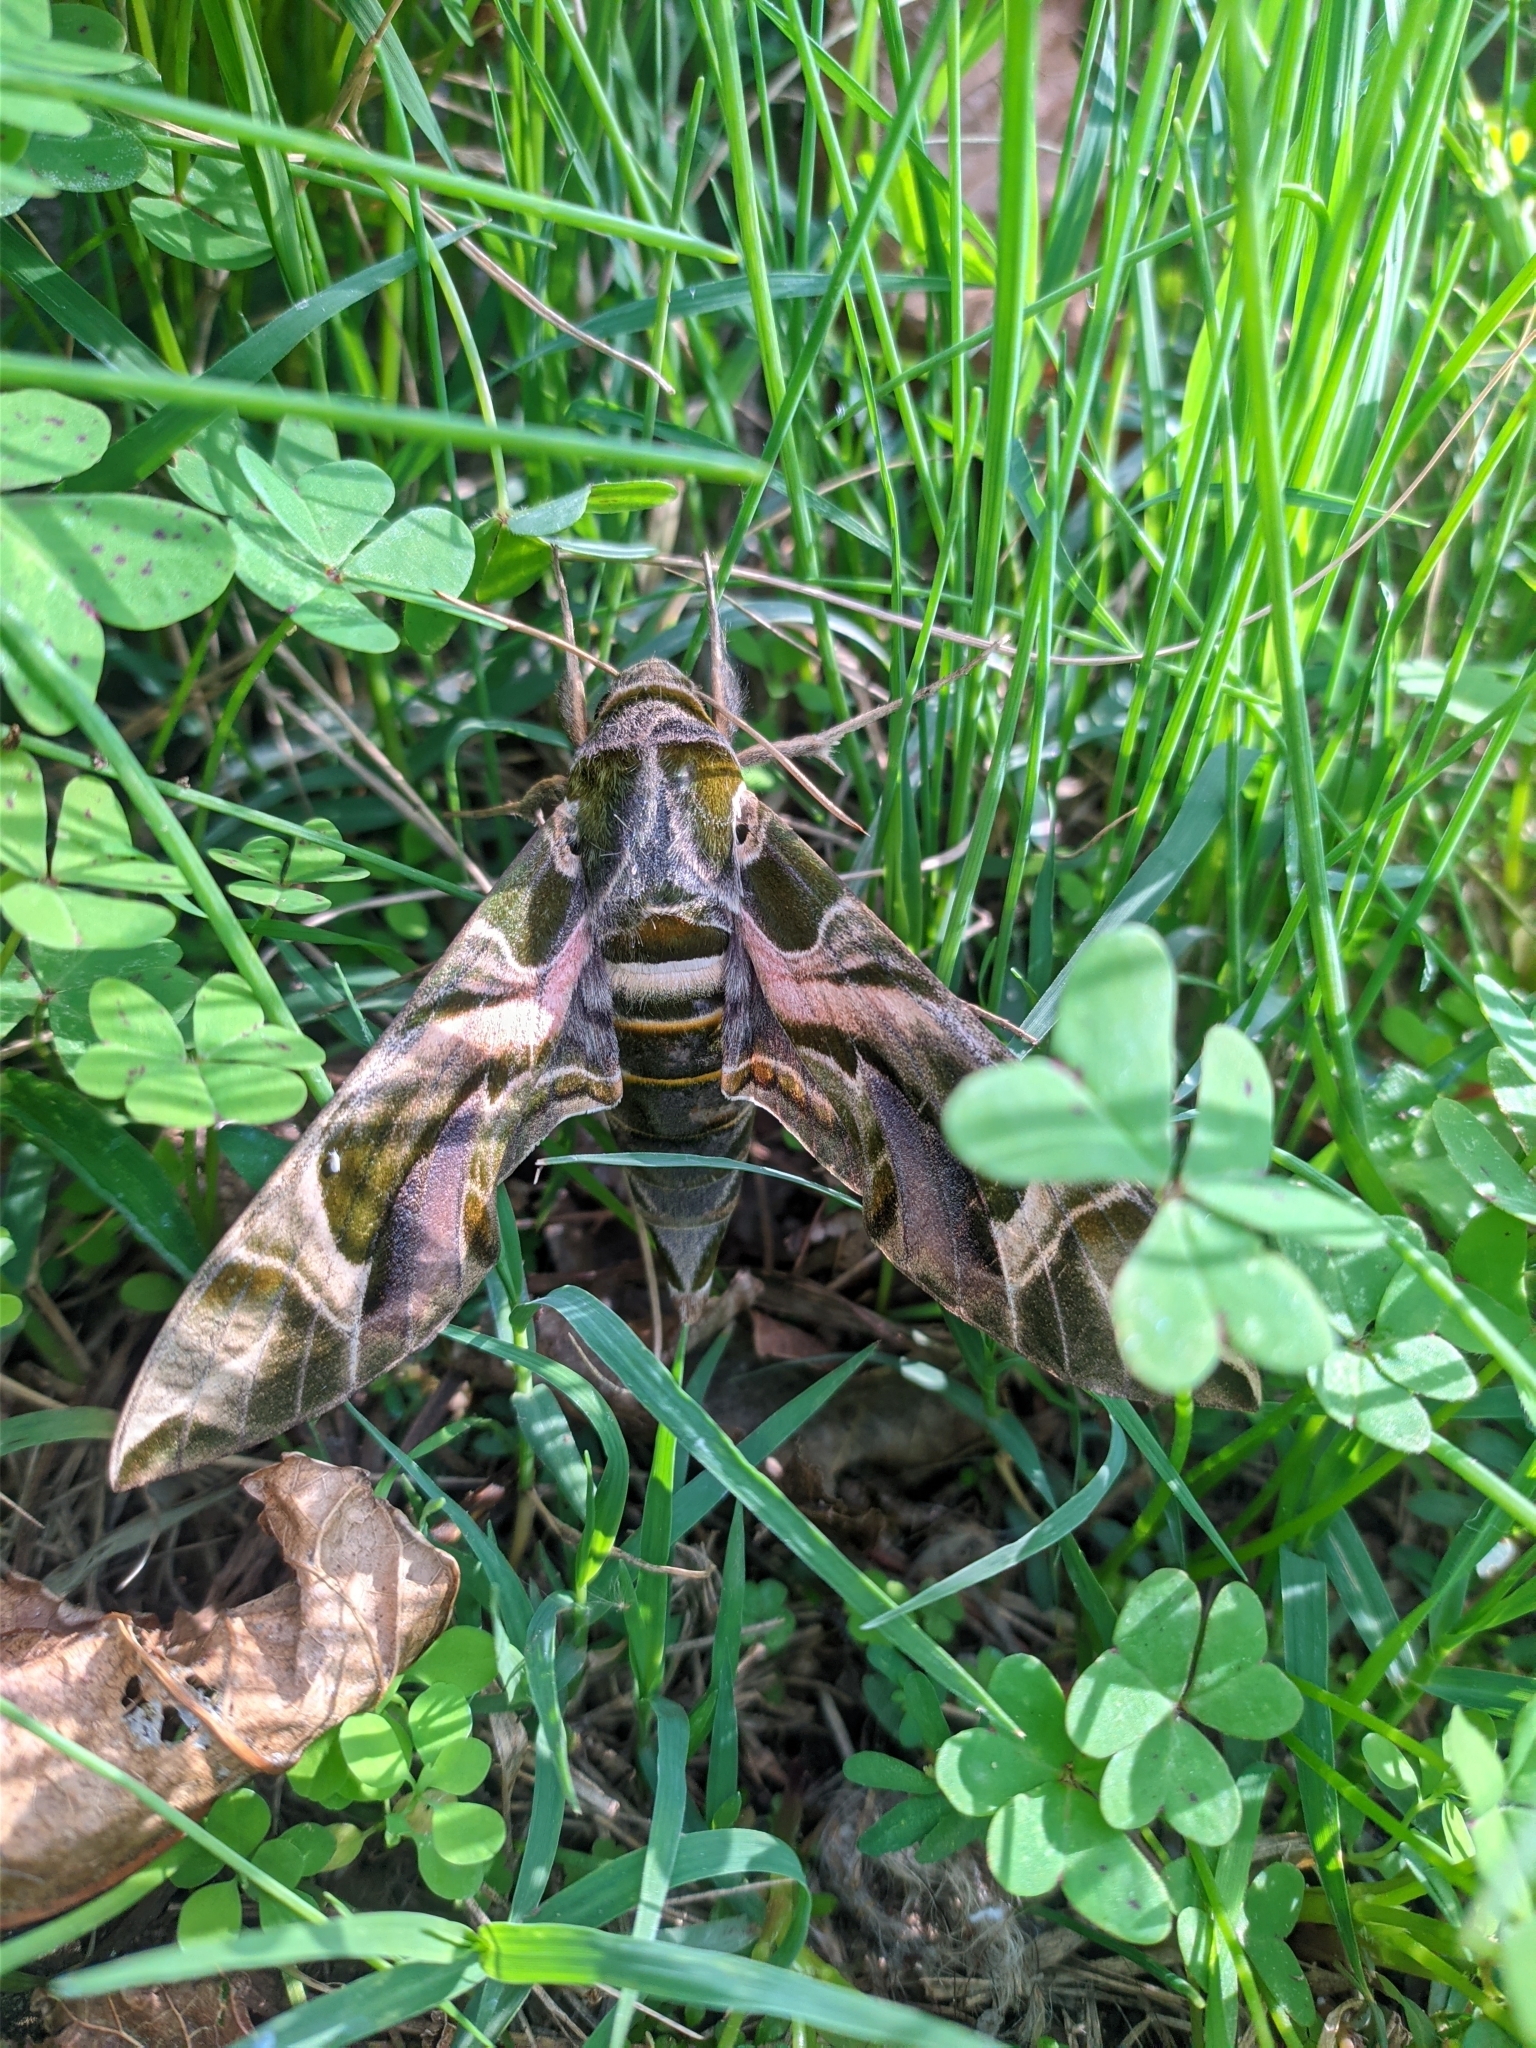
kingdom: Animalia
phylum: Arthropoda
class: Insecta
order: Lepidoptera
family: Sphingidae
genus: Daphnis
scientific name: Daphnis nerii
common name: Oleander hawk-moth
